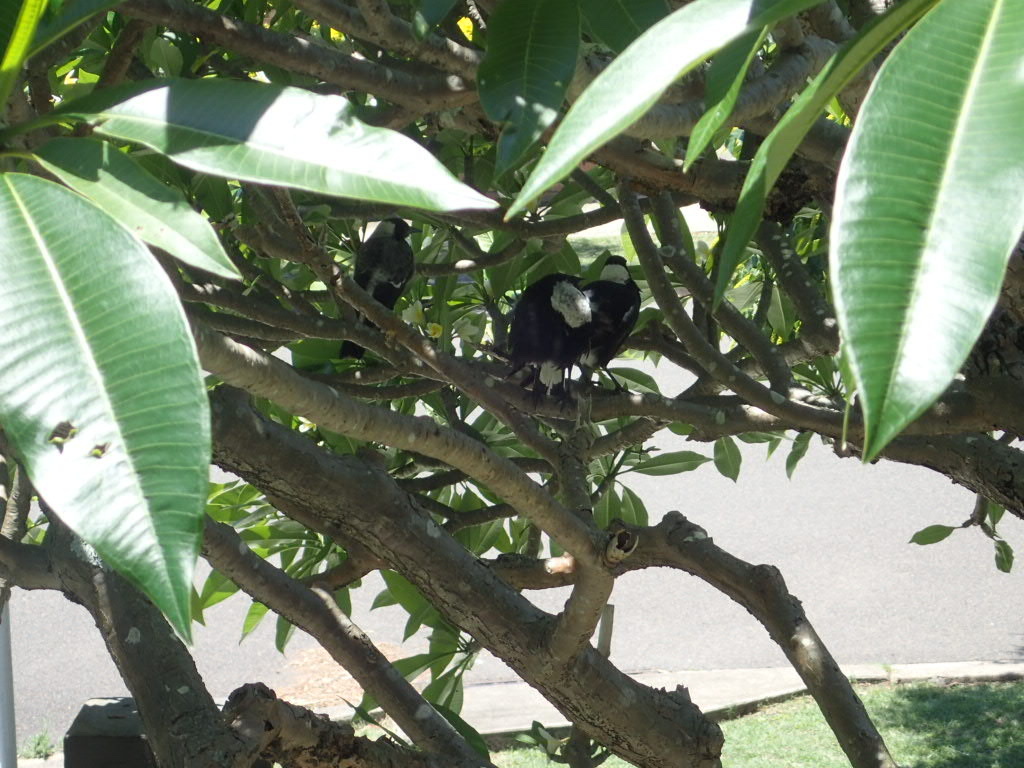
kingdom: Animalia
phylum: Chordata
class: Aves
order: Passeriformes
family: Cracticidae
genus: Gymnorhina
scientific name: Gymnorhina tibicen
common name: Australian magpie
